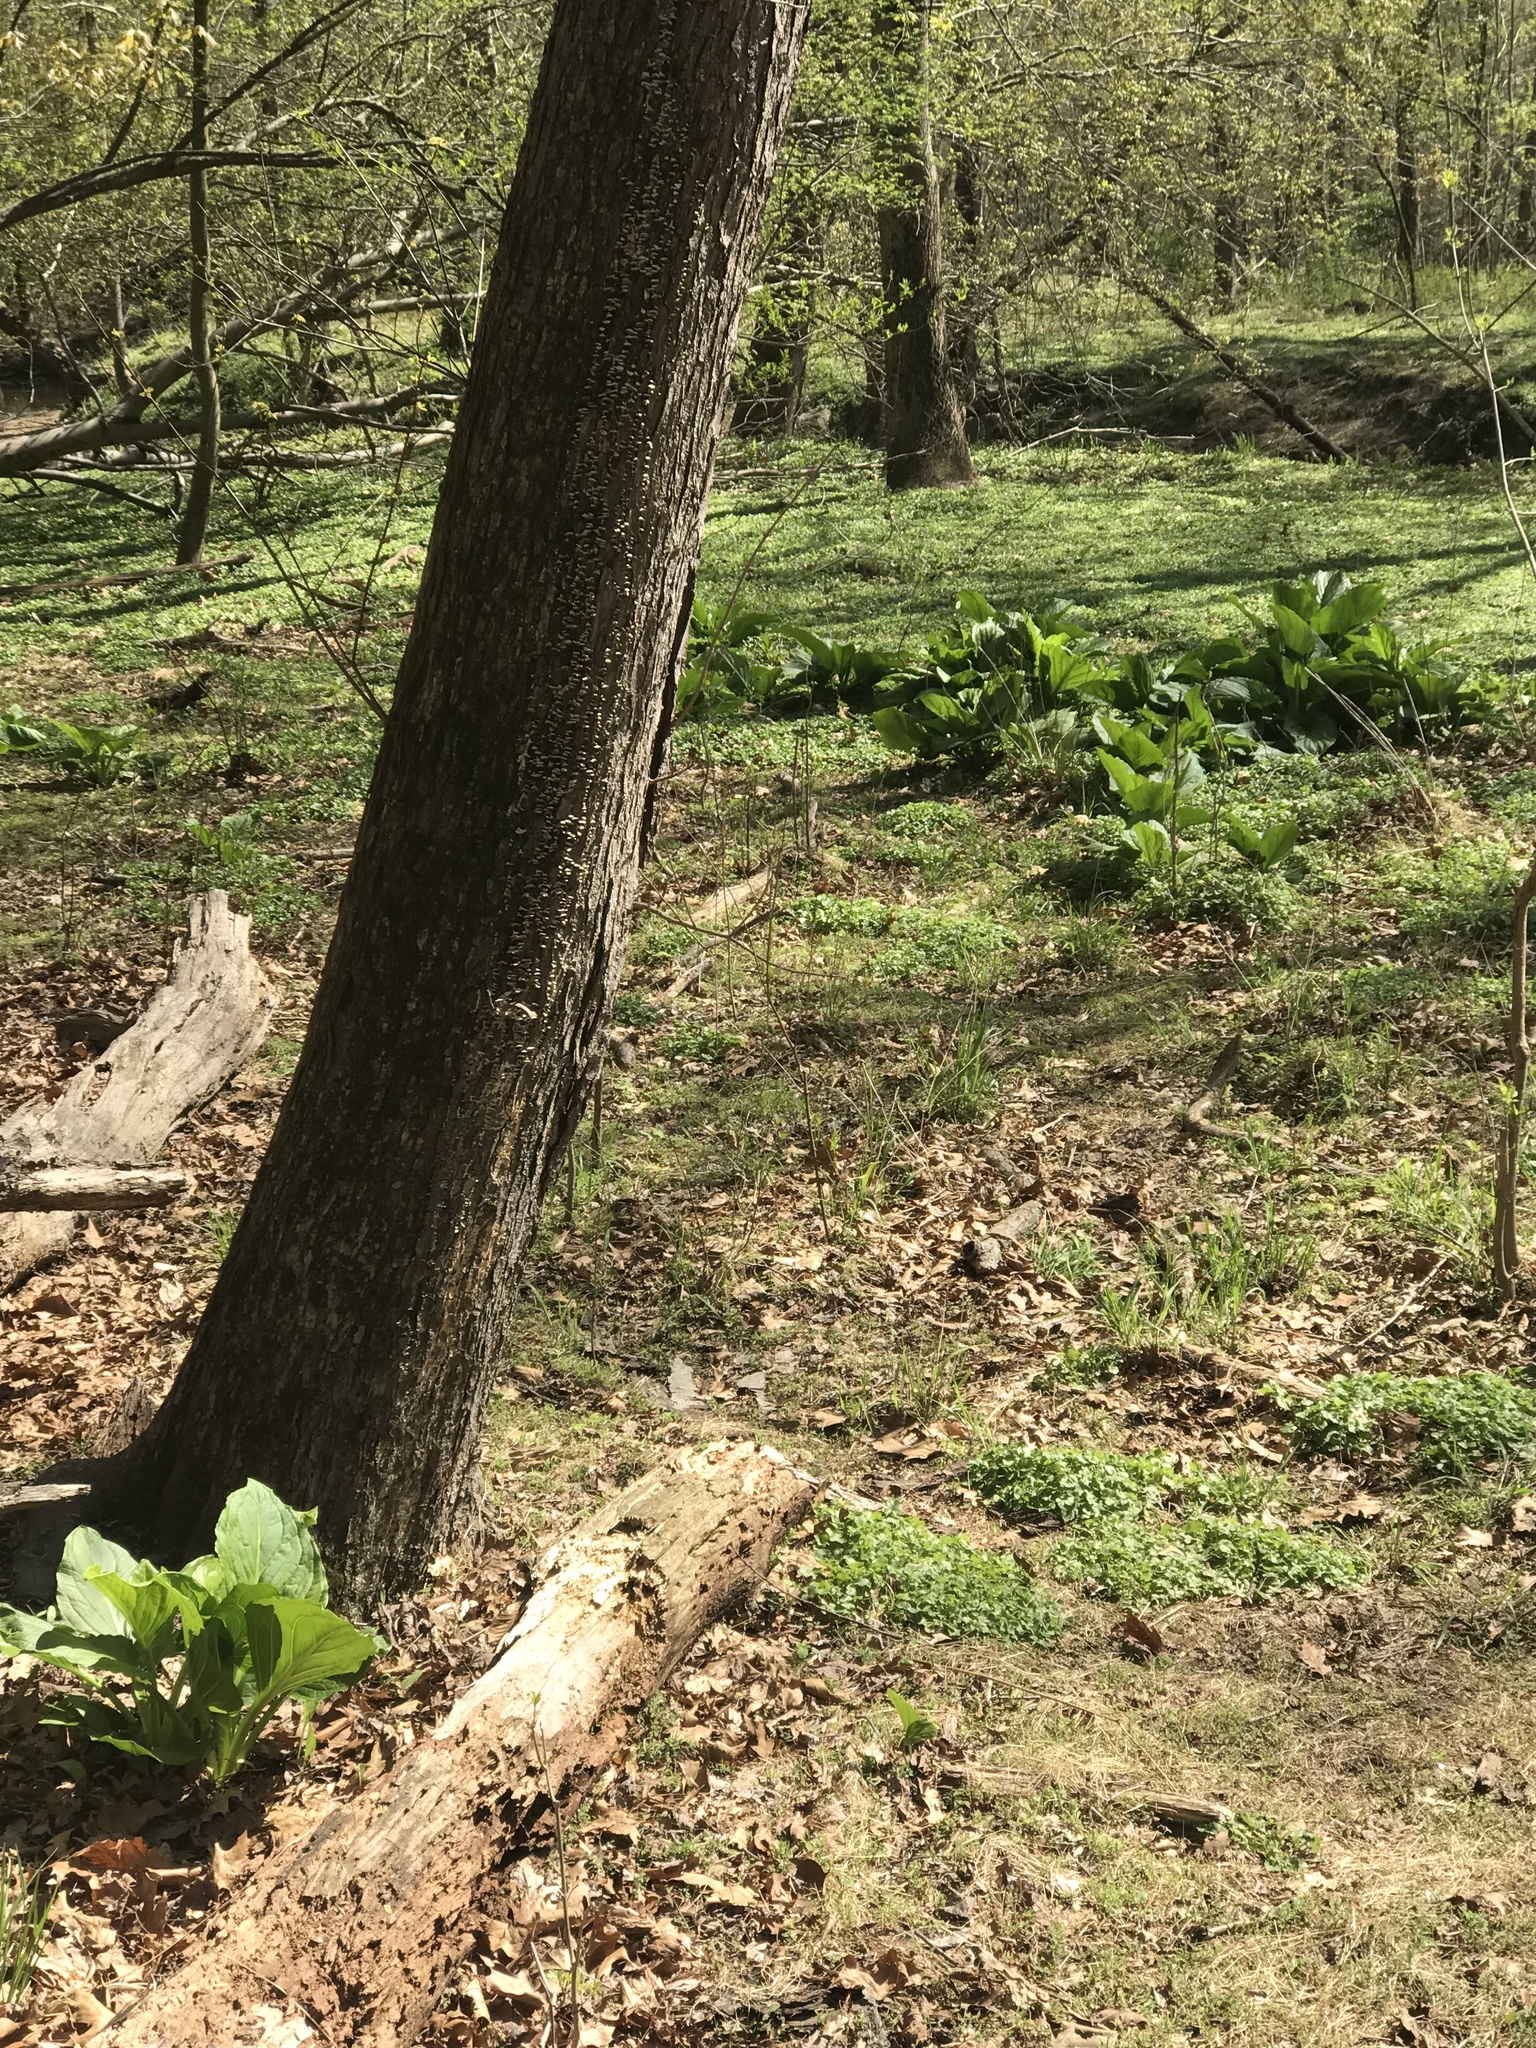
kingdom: Plantae
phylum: Tracheophyta
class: Liliopsida
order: Alismatales
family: Araceae
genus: Symplocarpus
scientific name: Symplocarpus foetidus
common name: Eastern skunk cabbage
